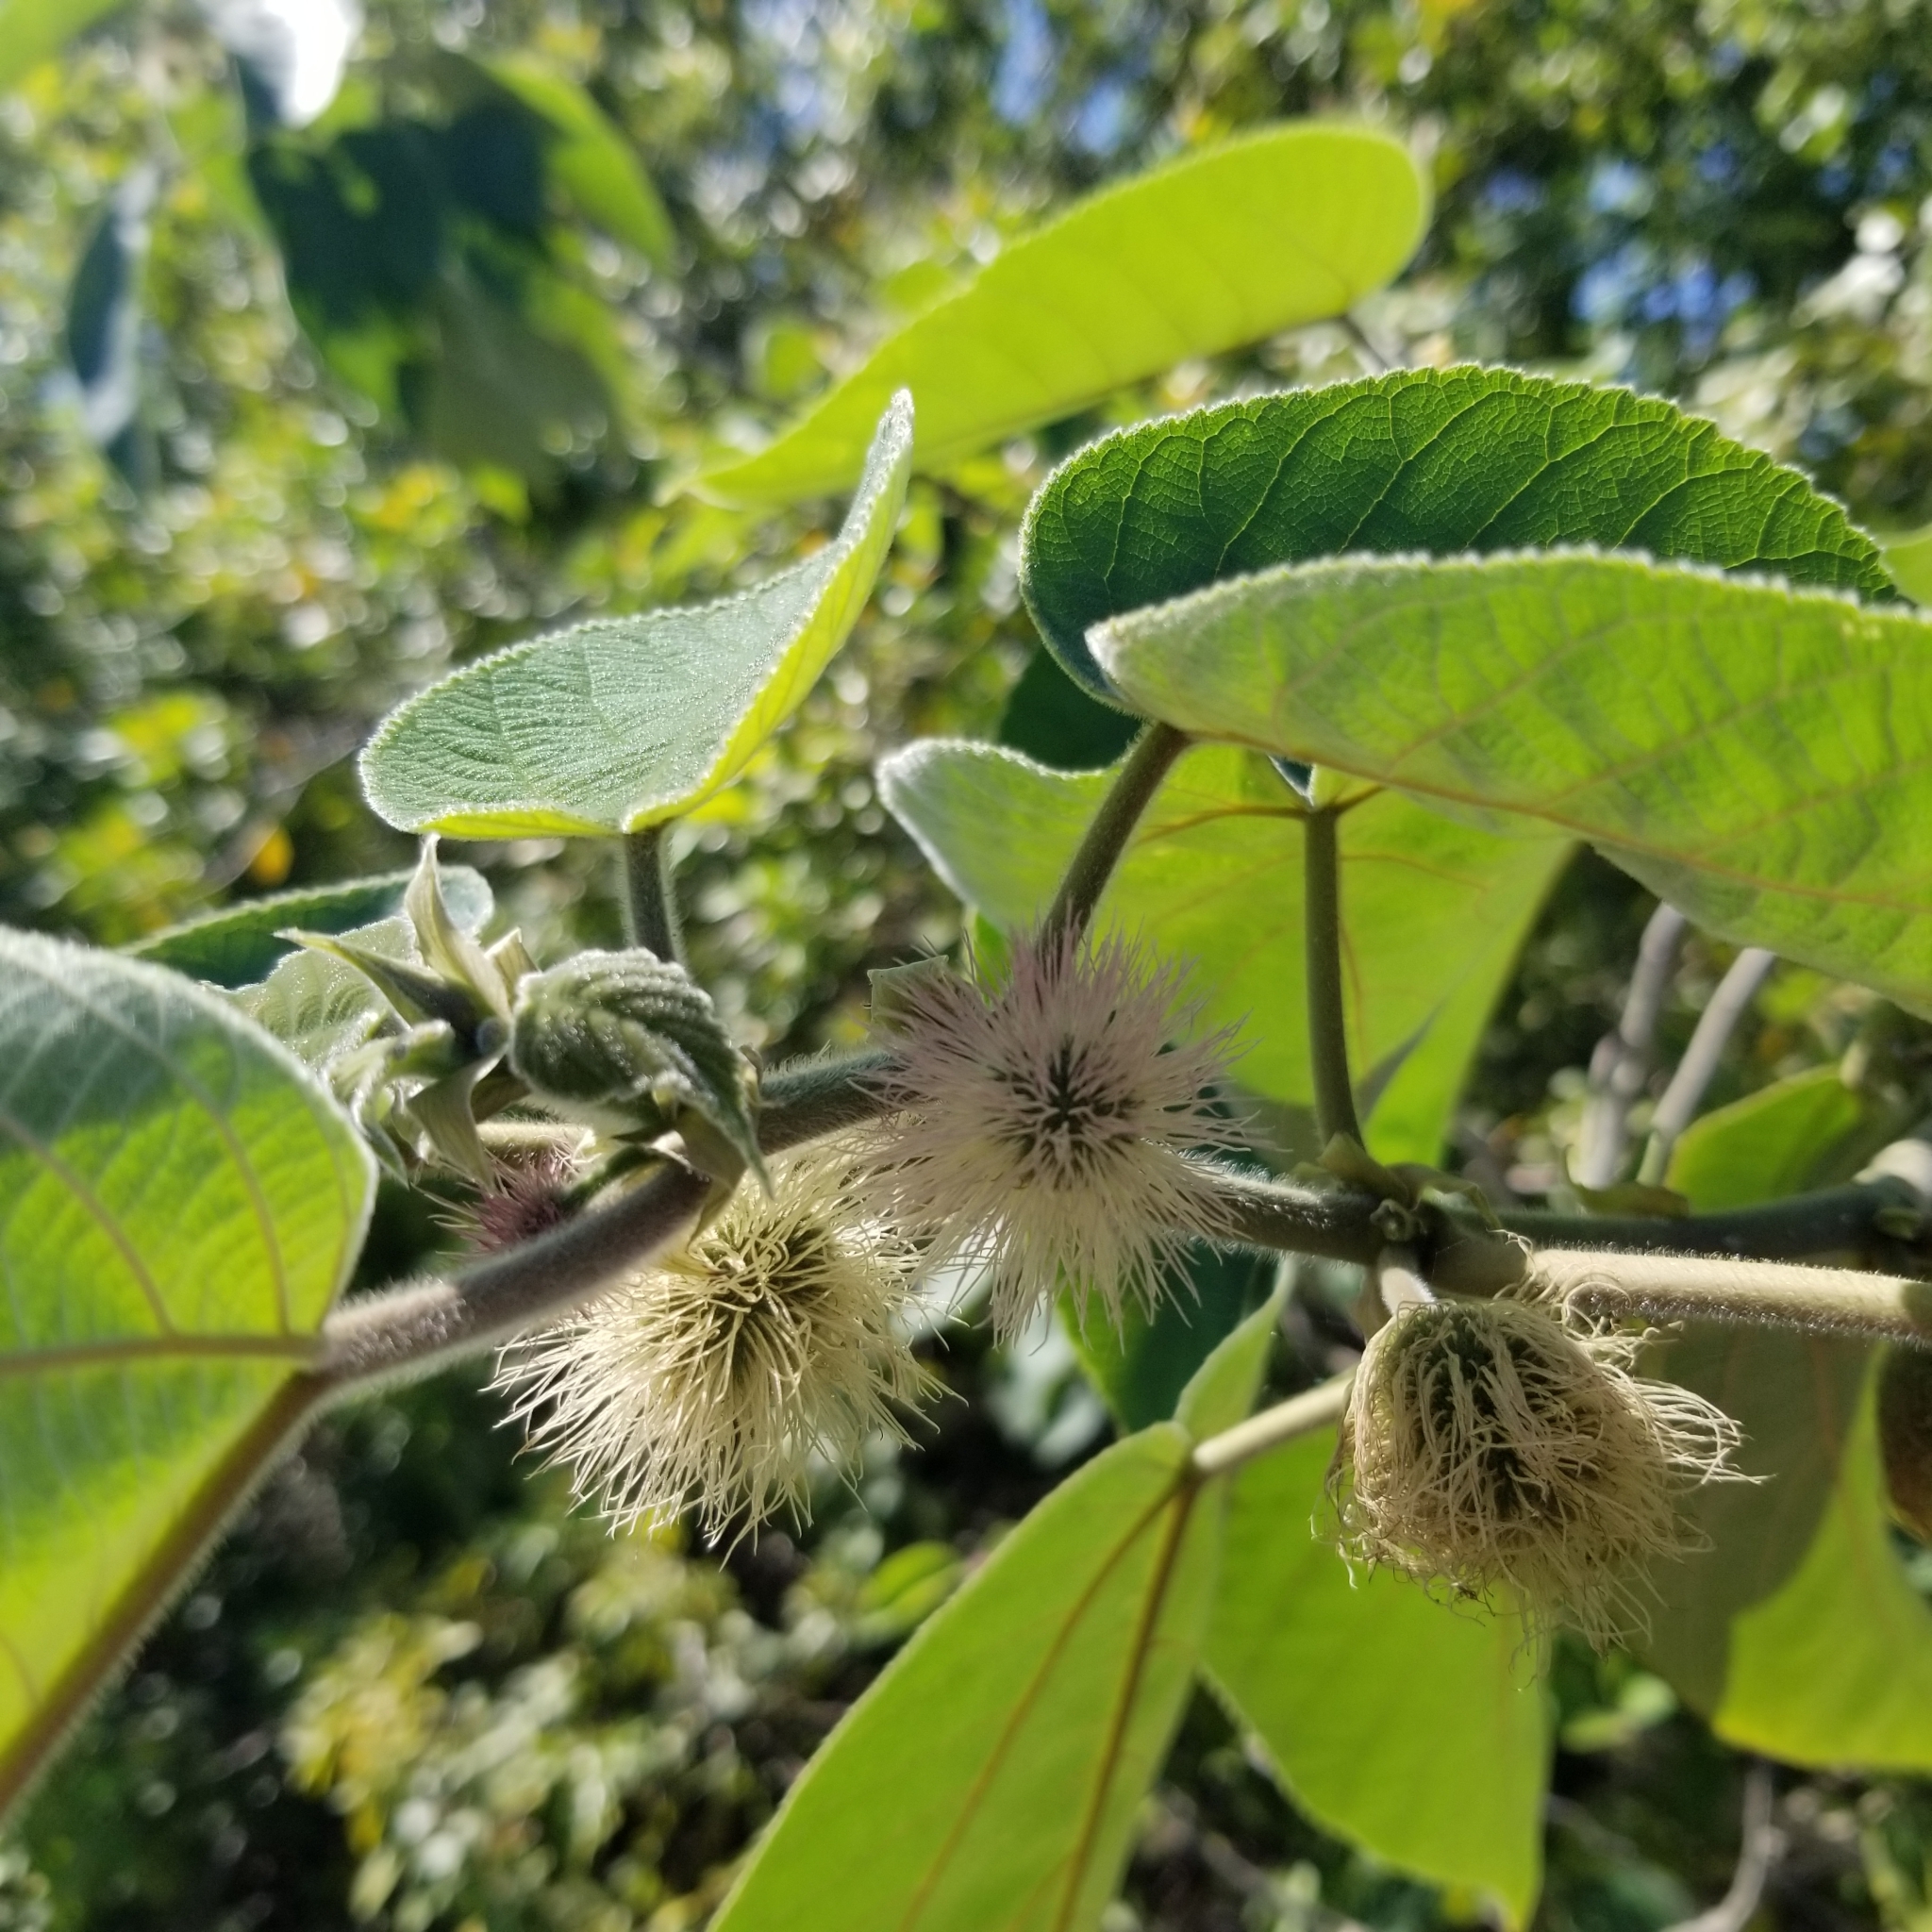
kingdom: Plantae
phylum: Tracheophyta
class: Magnoliopsida
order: Rosales
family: Moraceae
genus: Broussonetia
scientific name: Broussonetia papyrifera
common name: Paper mulberry
